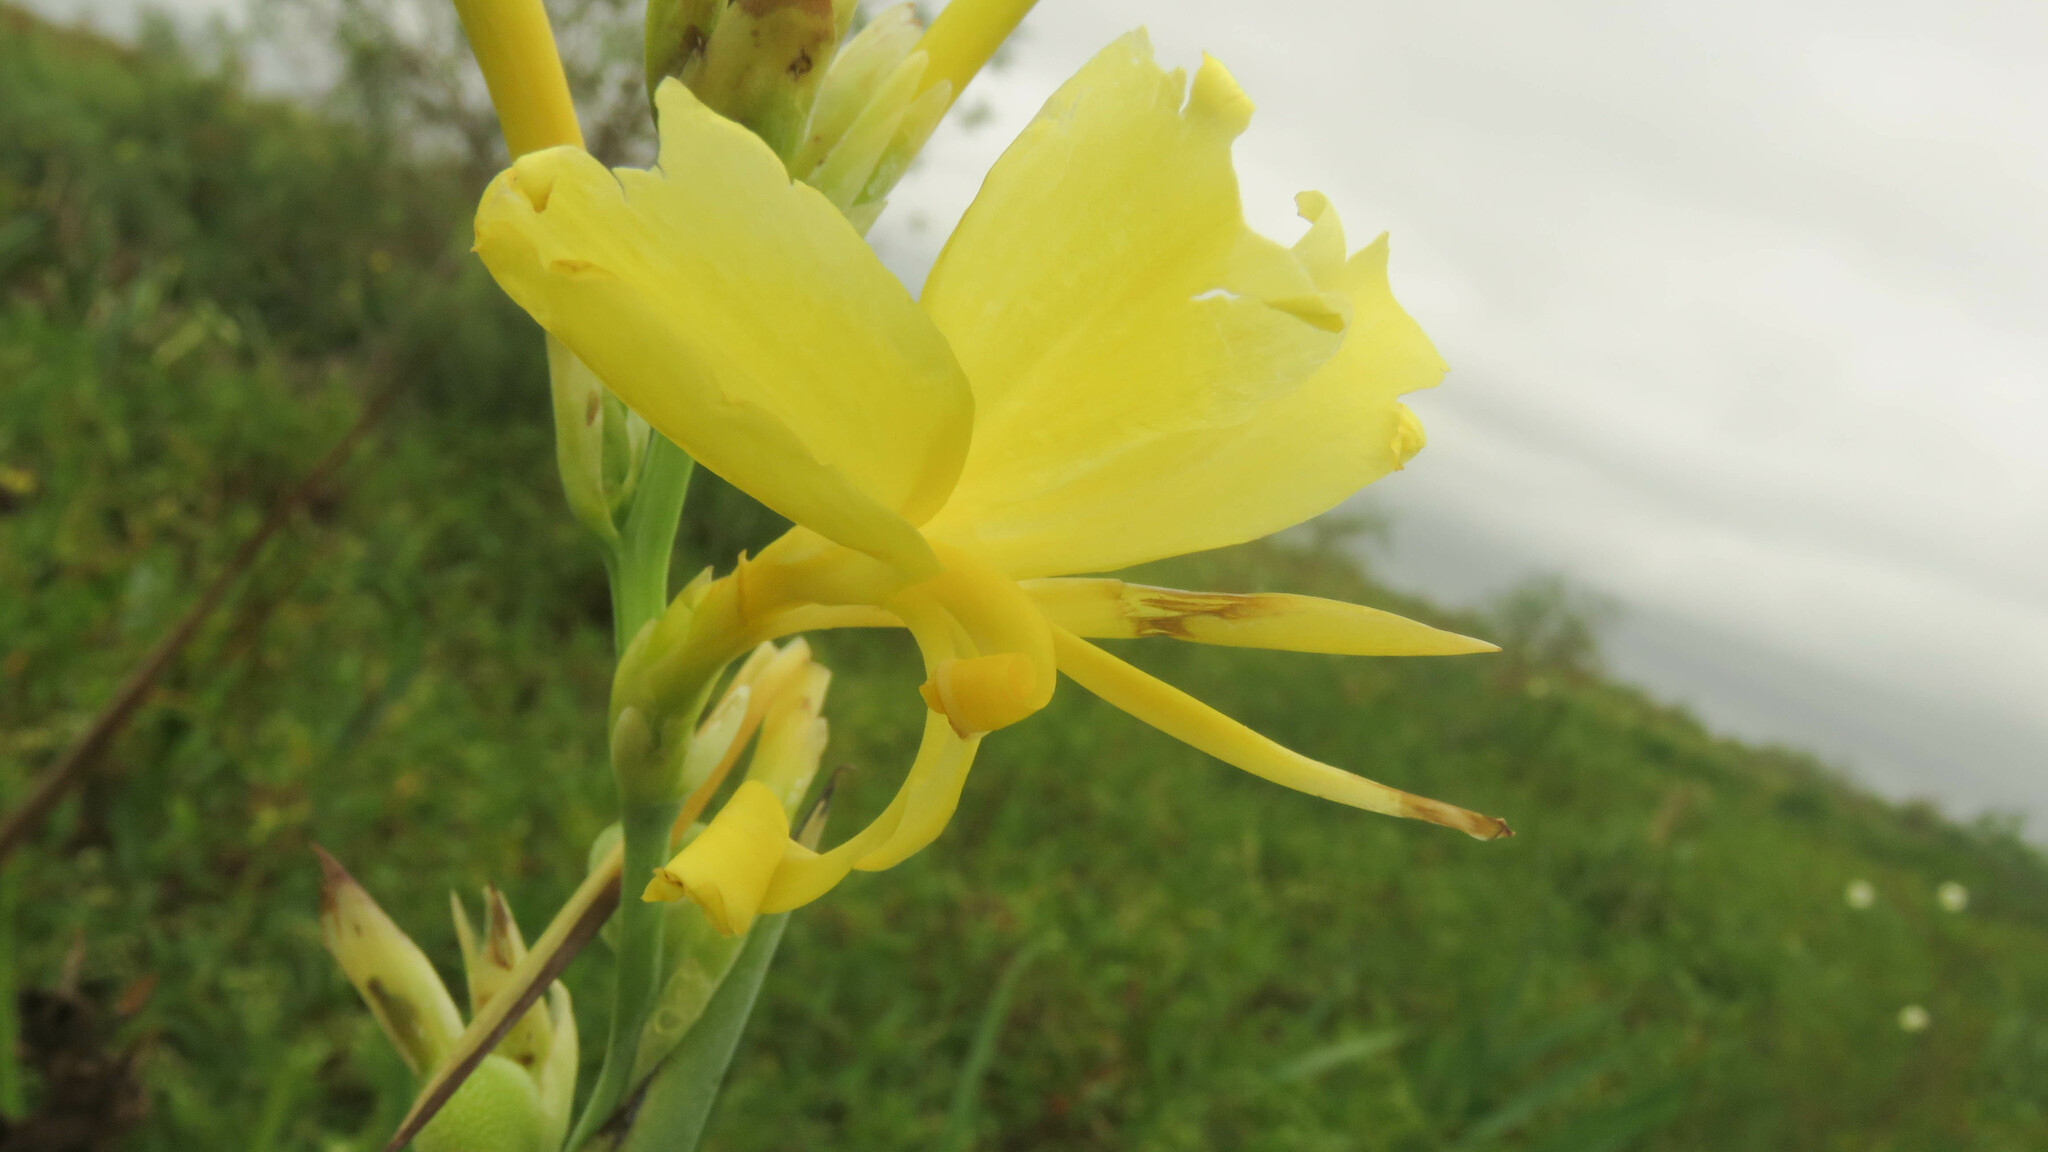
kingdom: Plantae
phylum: Tracheophyta
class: Liliopsida
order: Zingiberales
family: Cannaceae
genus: Canna
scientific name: Canna glauca
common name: Louisiana canna
